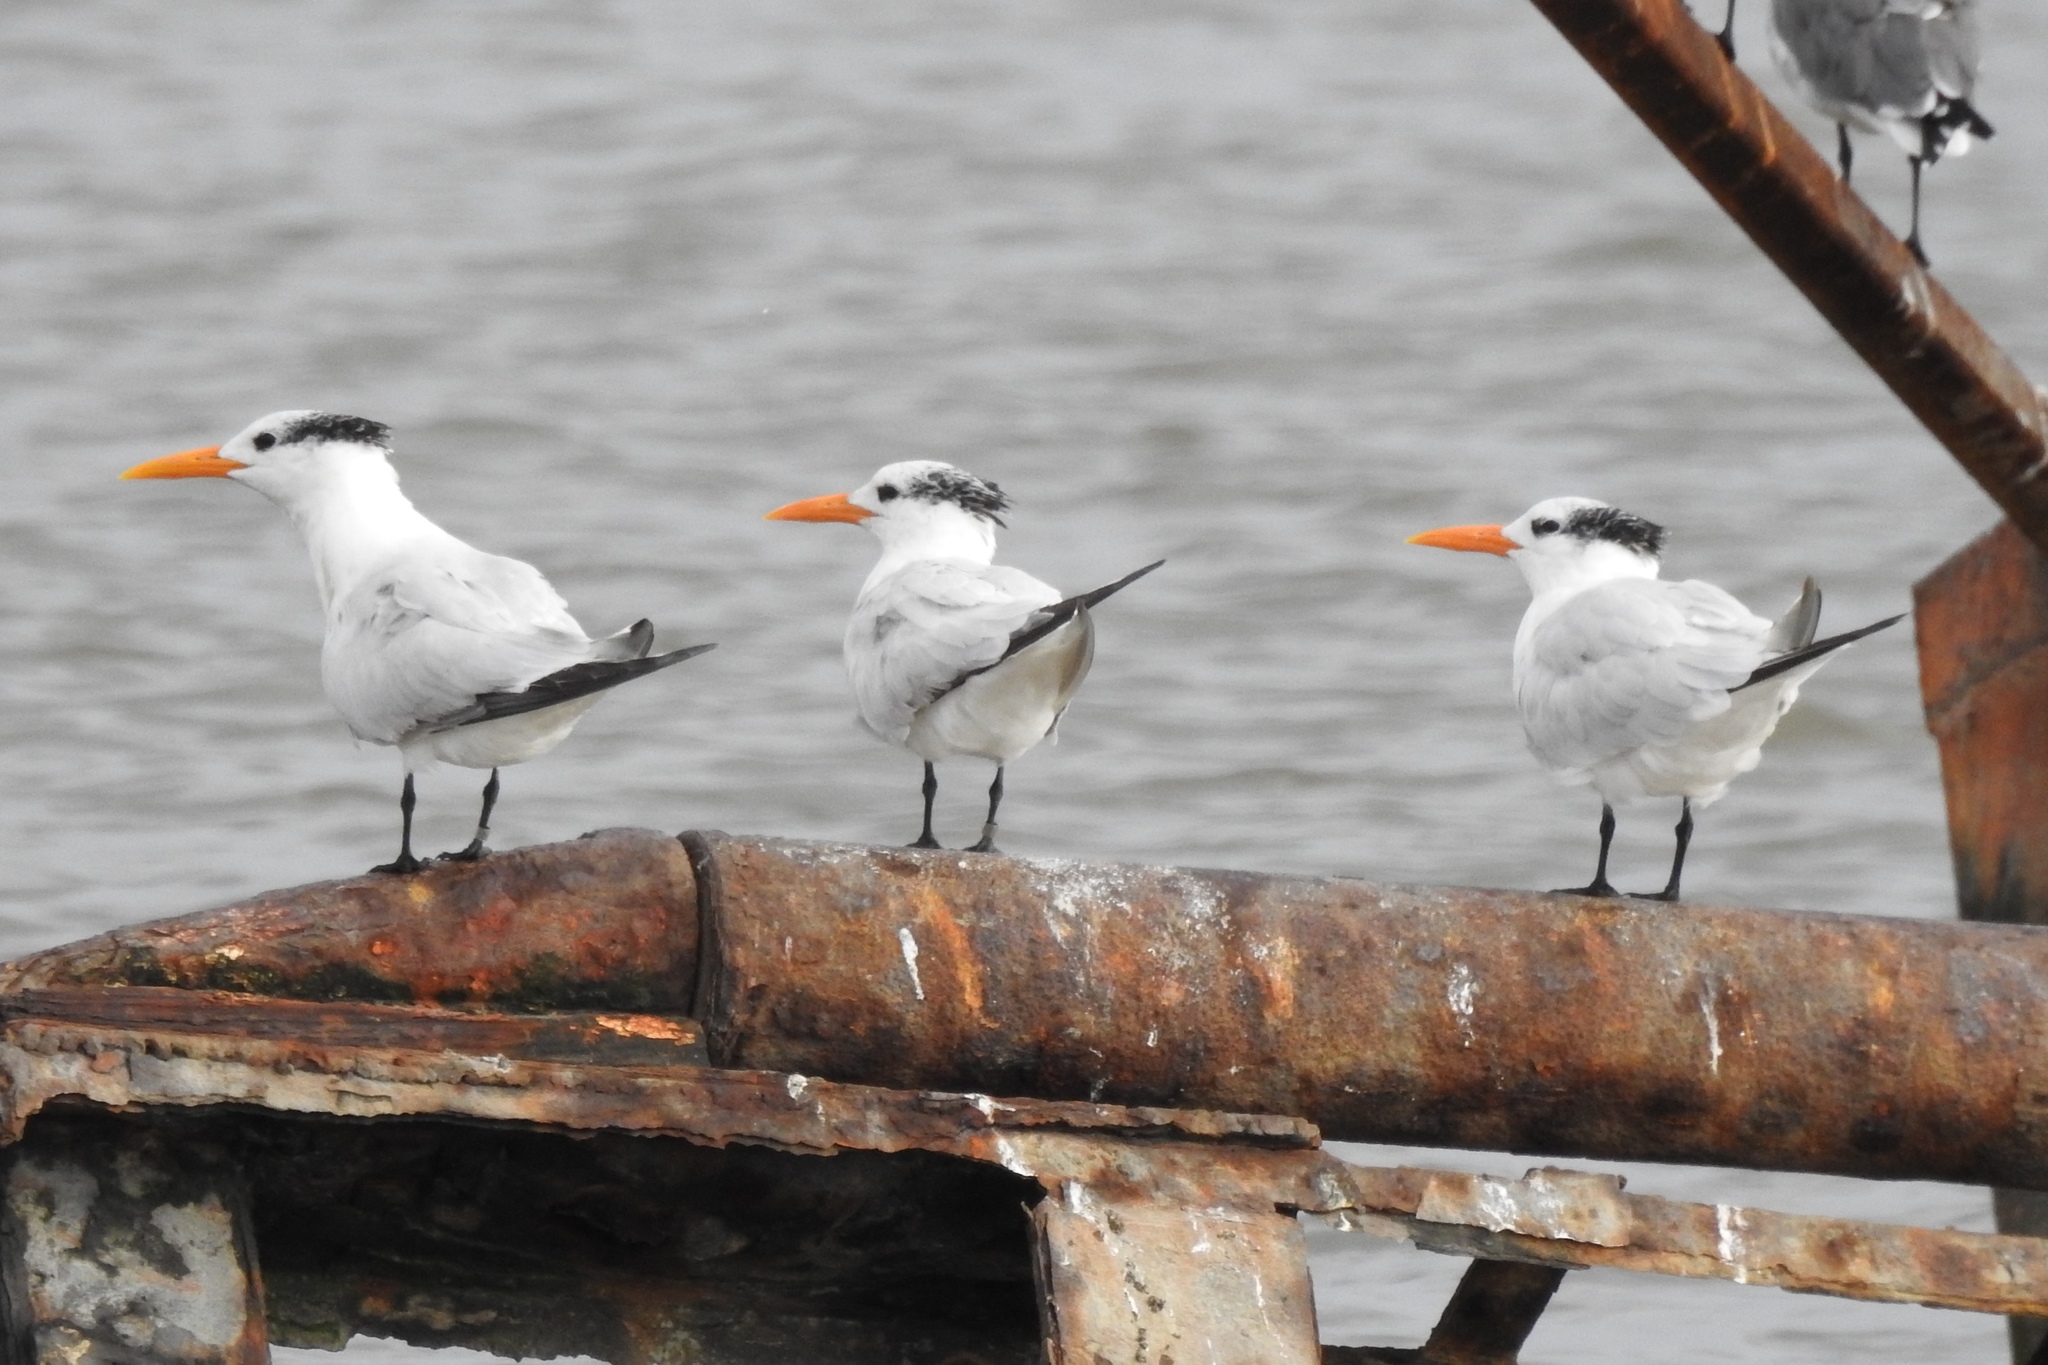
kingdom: Animalia
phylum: Chordata
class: Aves
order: Charadriiformes
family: Laridae
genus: Thalasseus
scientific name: Thalasseus maximus
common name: Royal tern
